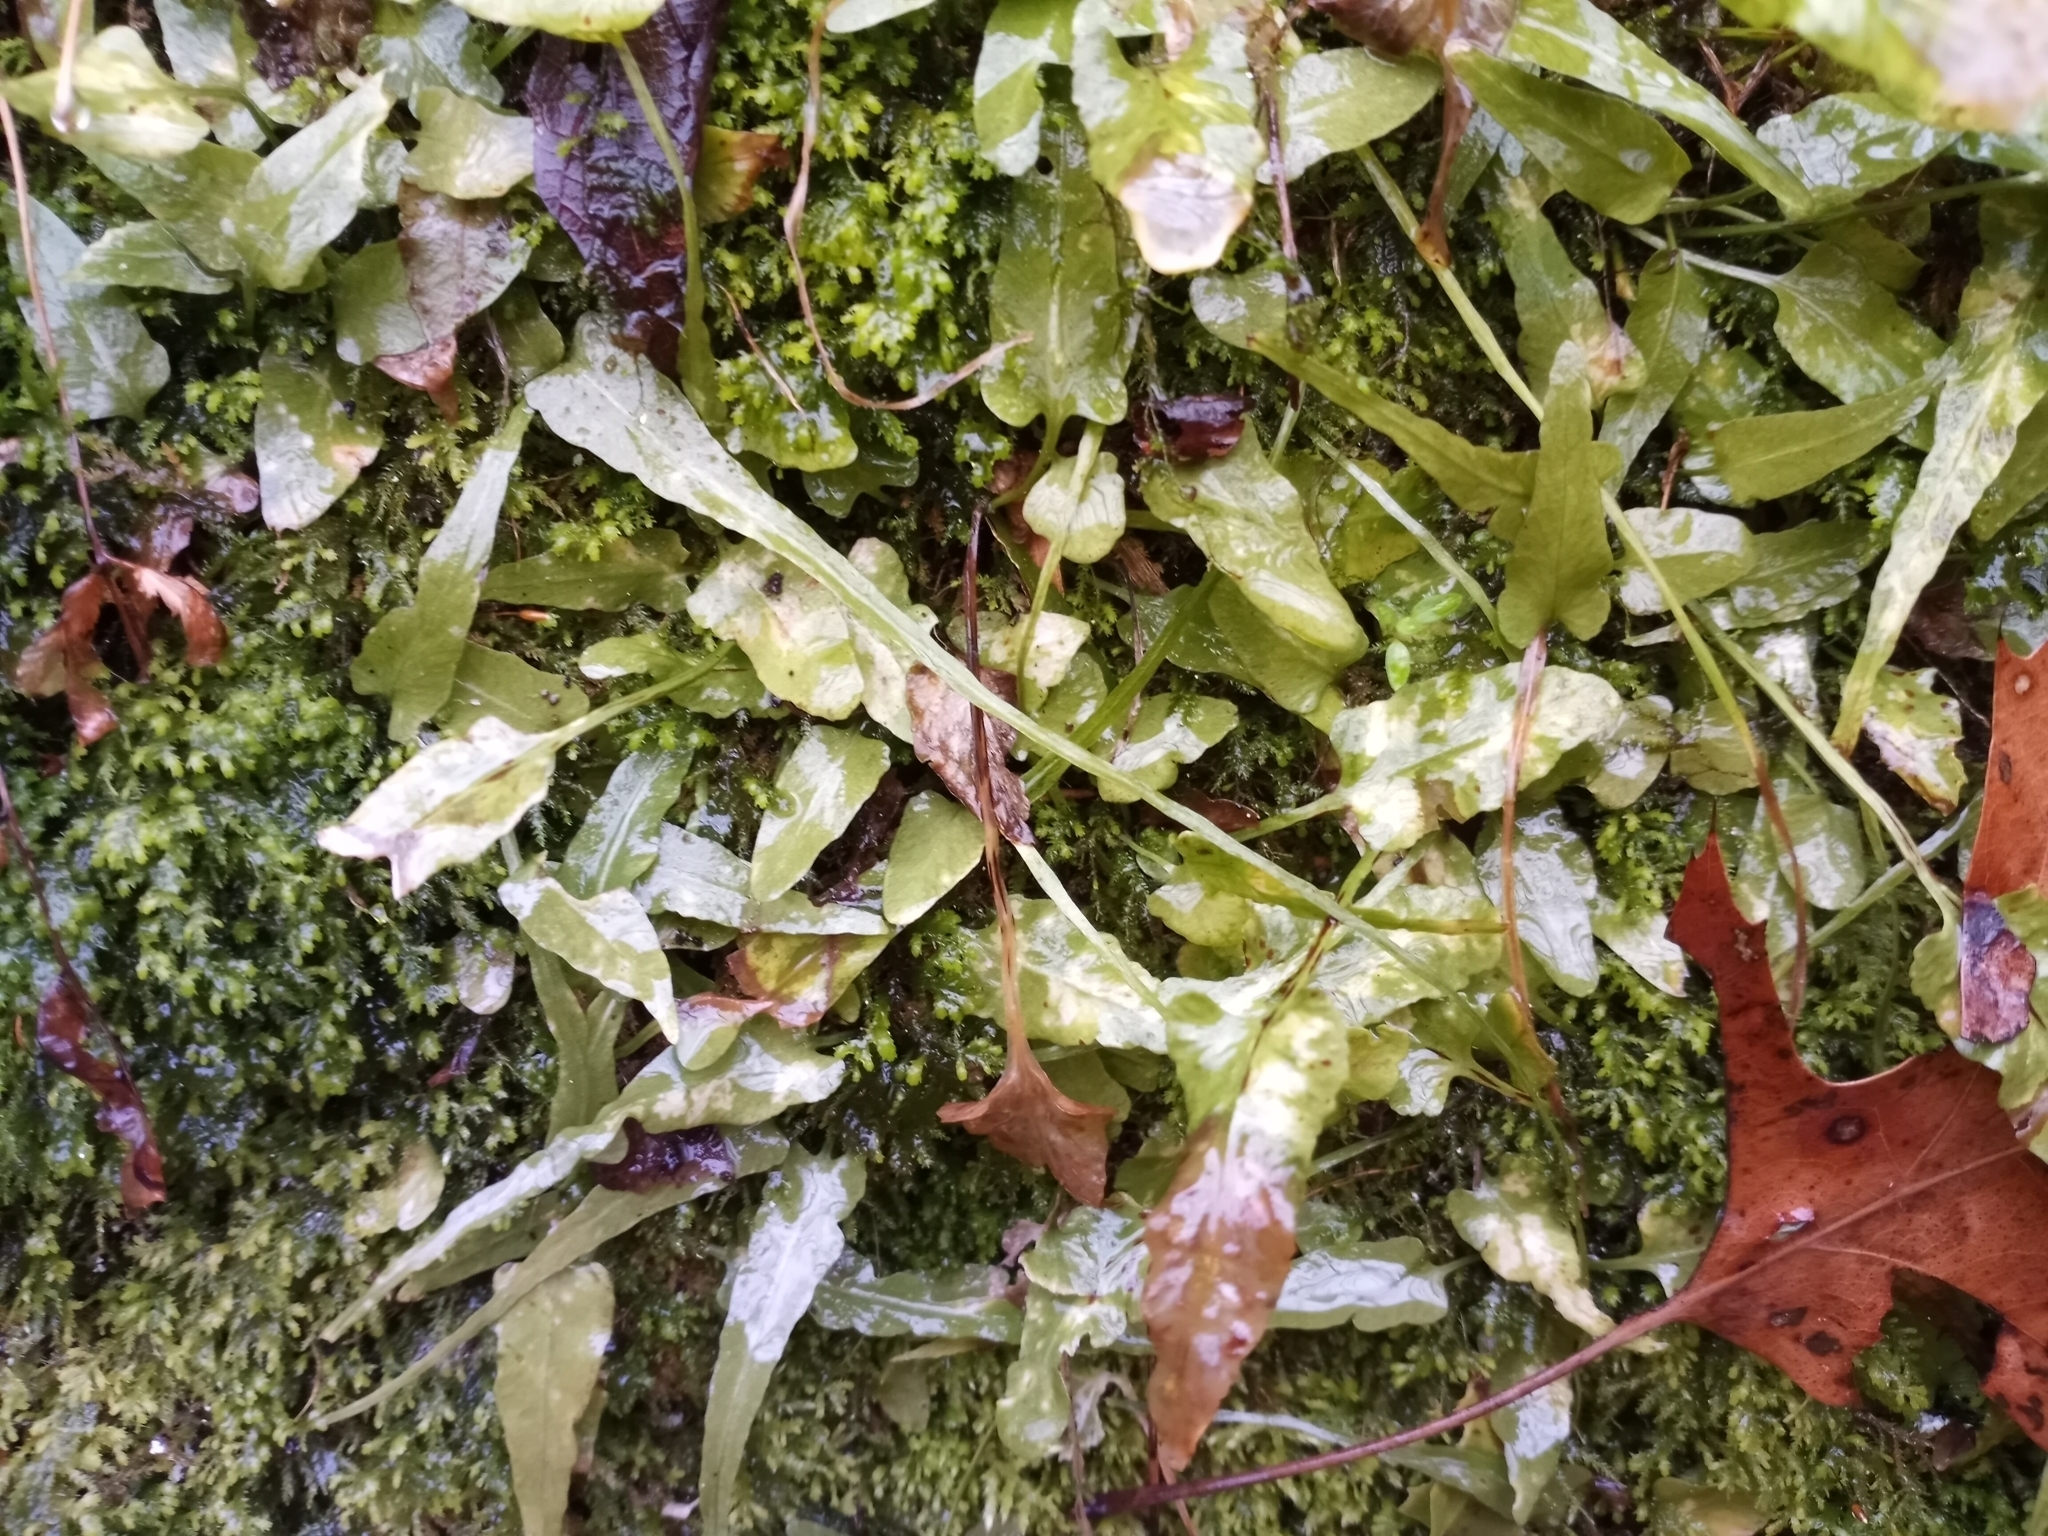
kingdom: Plantae
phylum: Tracheophyta
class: Polypodiopsida
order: Polypodiales
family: Aspleniaceae
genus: Asplenium
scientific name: Asplenium rhizophyllum
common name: Walking fern
